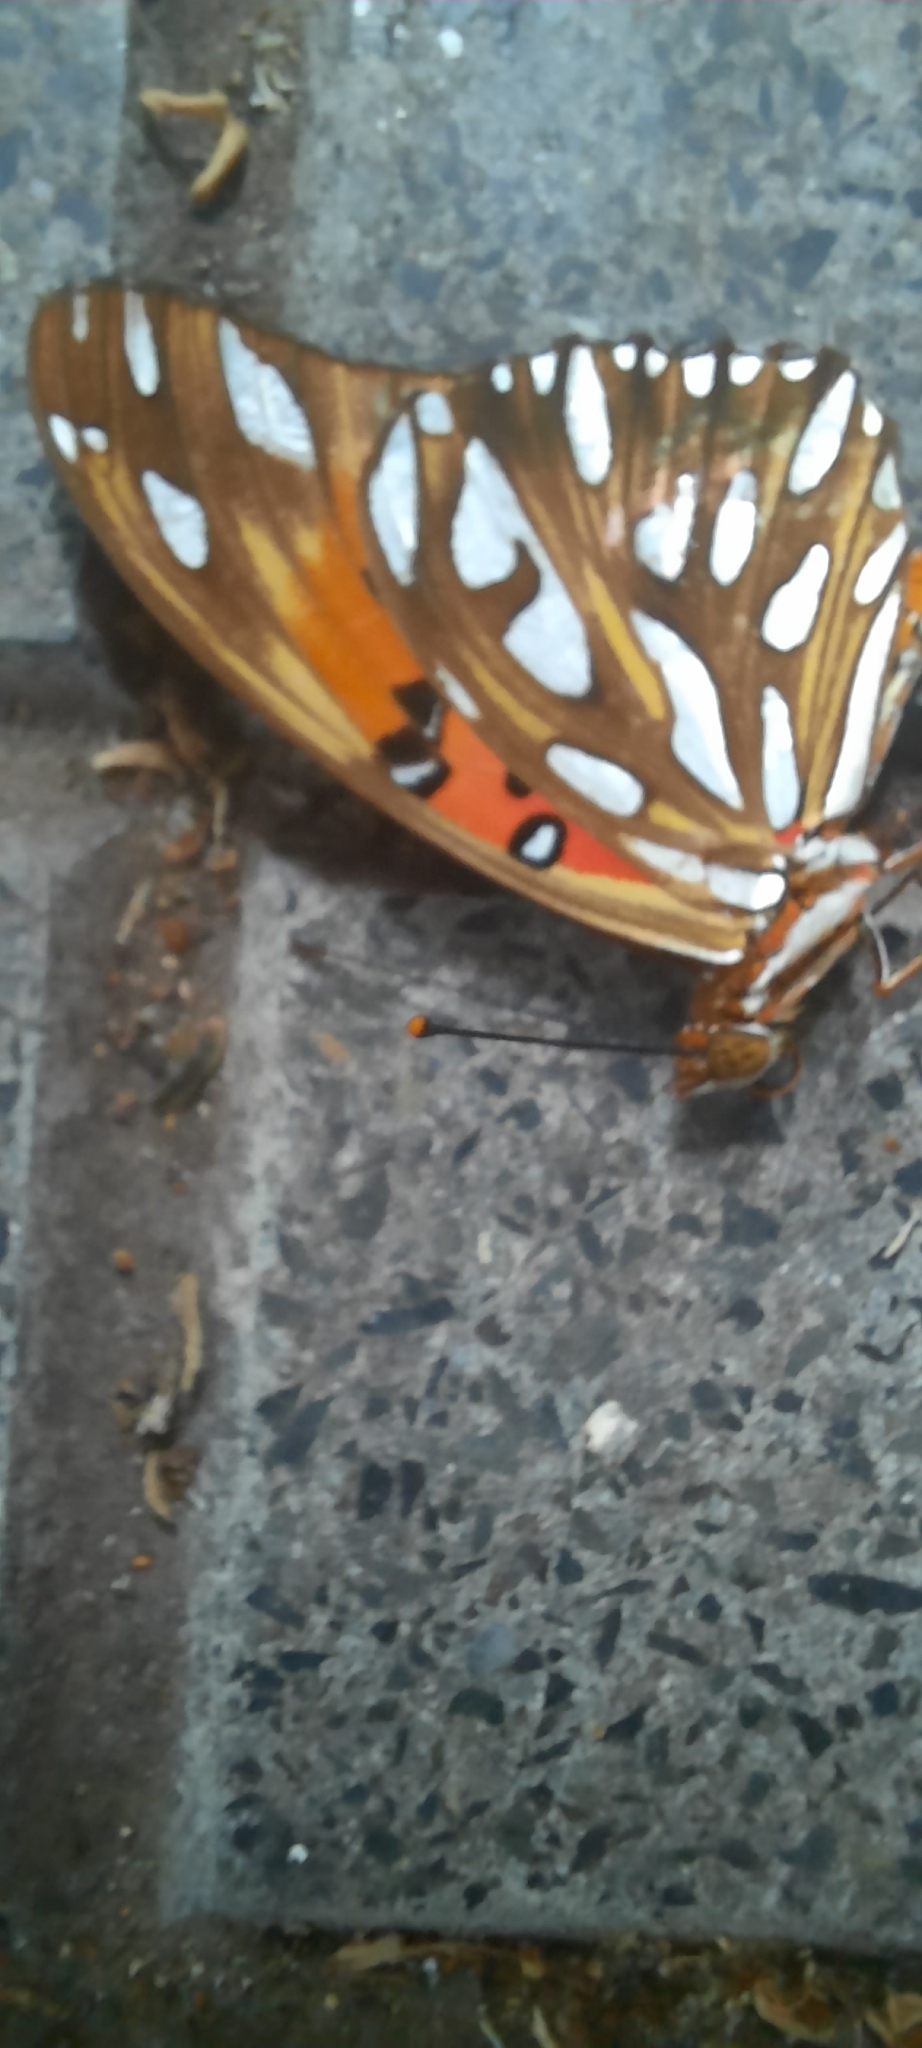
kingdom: Animalia
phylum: Arthropoda
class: Insecta
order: Lepidoptera
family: Nymphalidae
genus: Dione
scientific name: Dione vanillae
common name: Gulf fritillary
